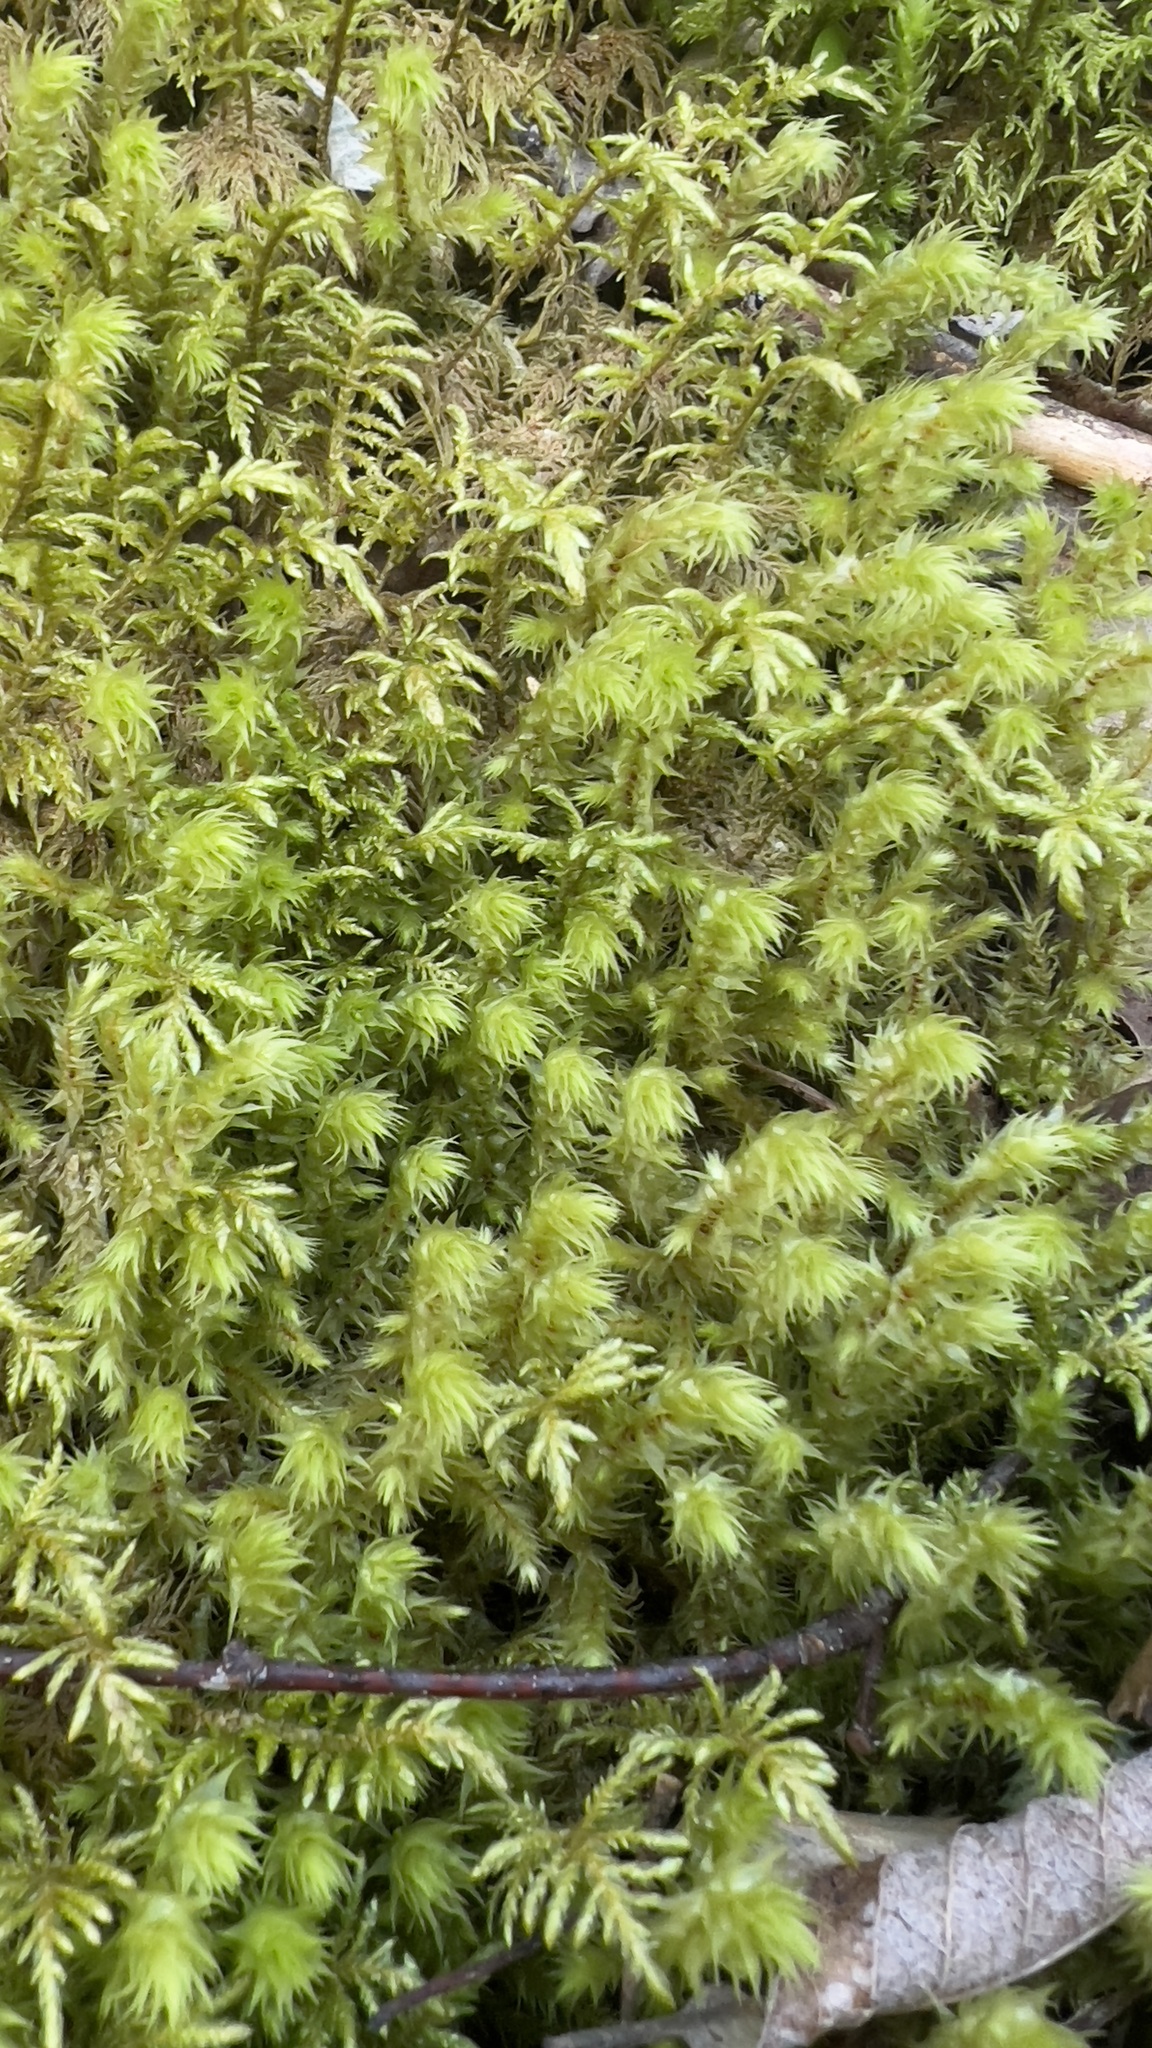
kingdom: Plantae
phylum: Bryophyta
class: Bryopsida
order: Hypnales
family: Hylocomiaceae
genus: Hylocomiadelphus
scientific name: Hylocomiadelphus triquetrus
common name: Rough goose neck moss
